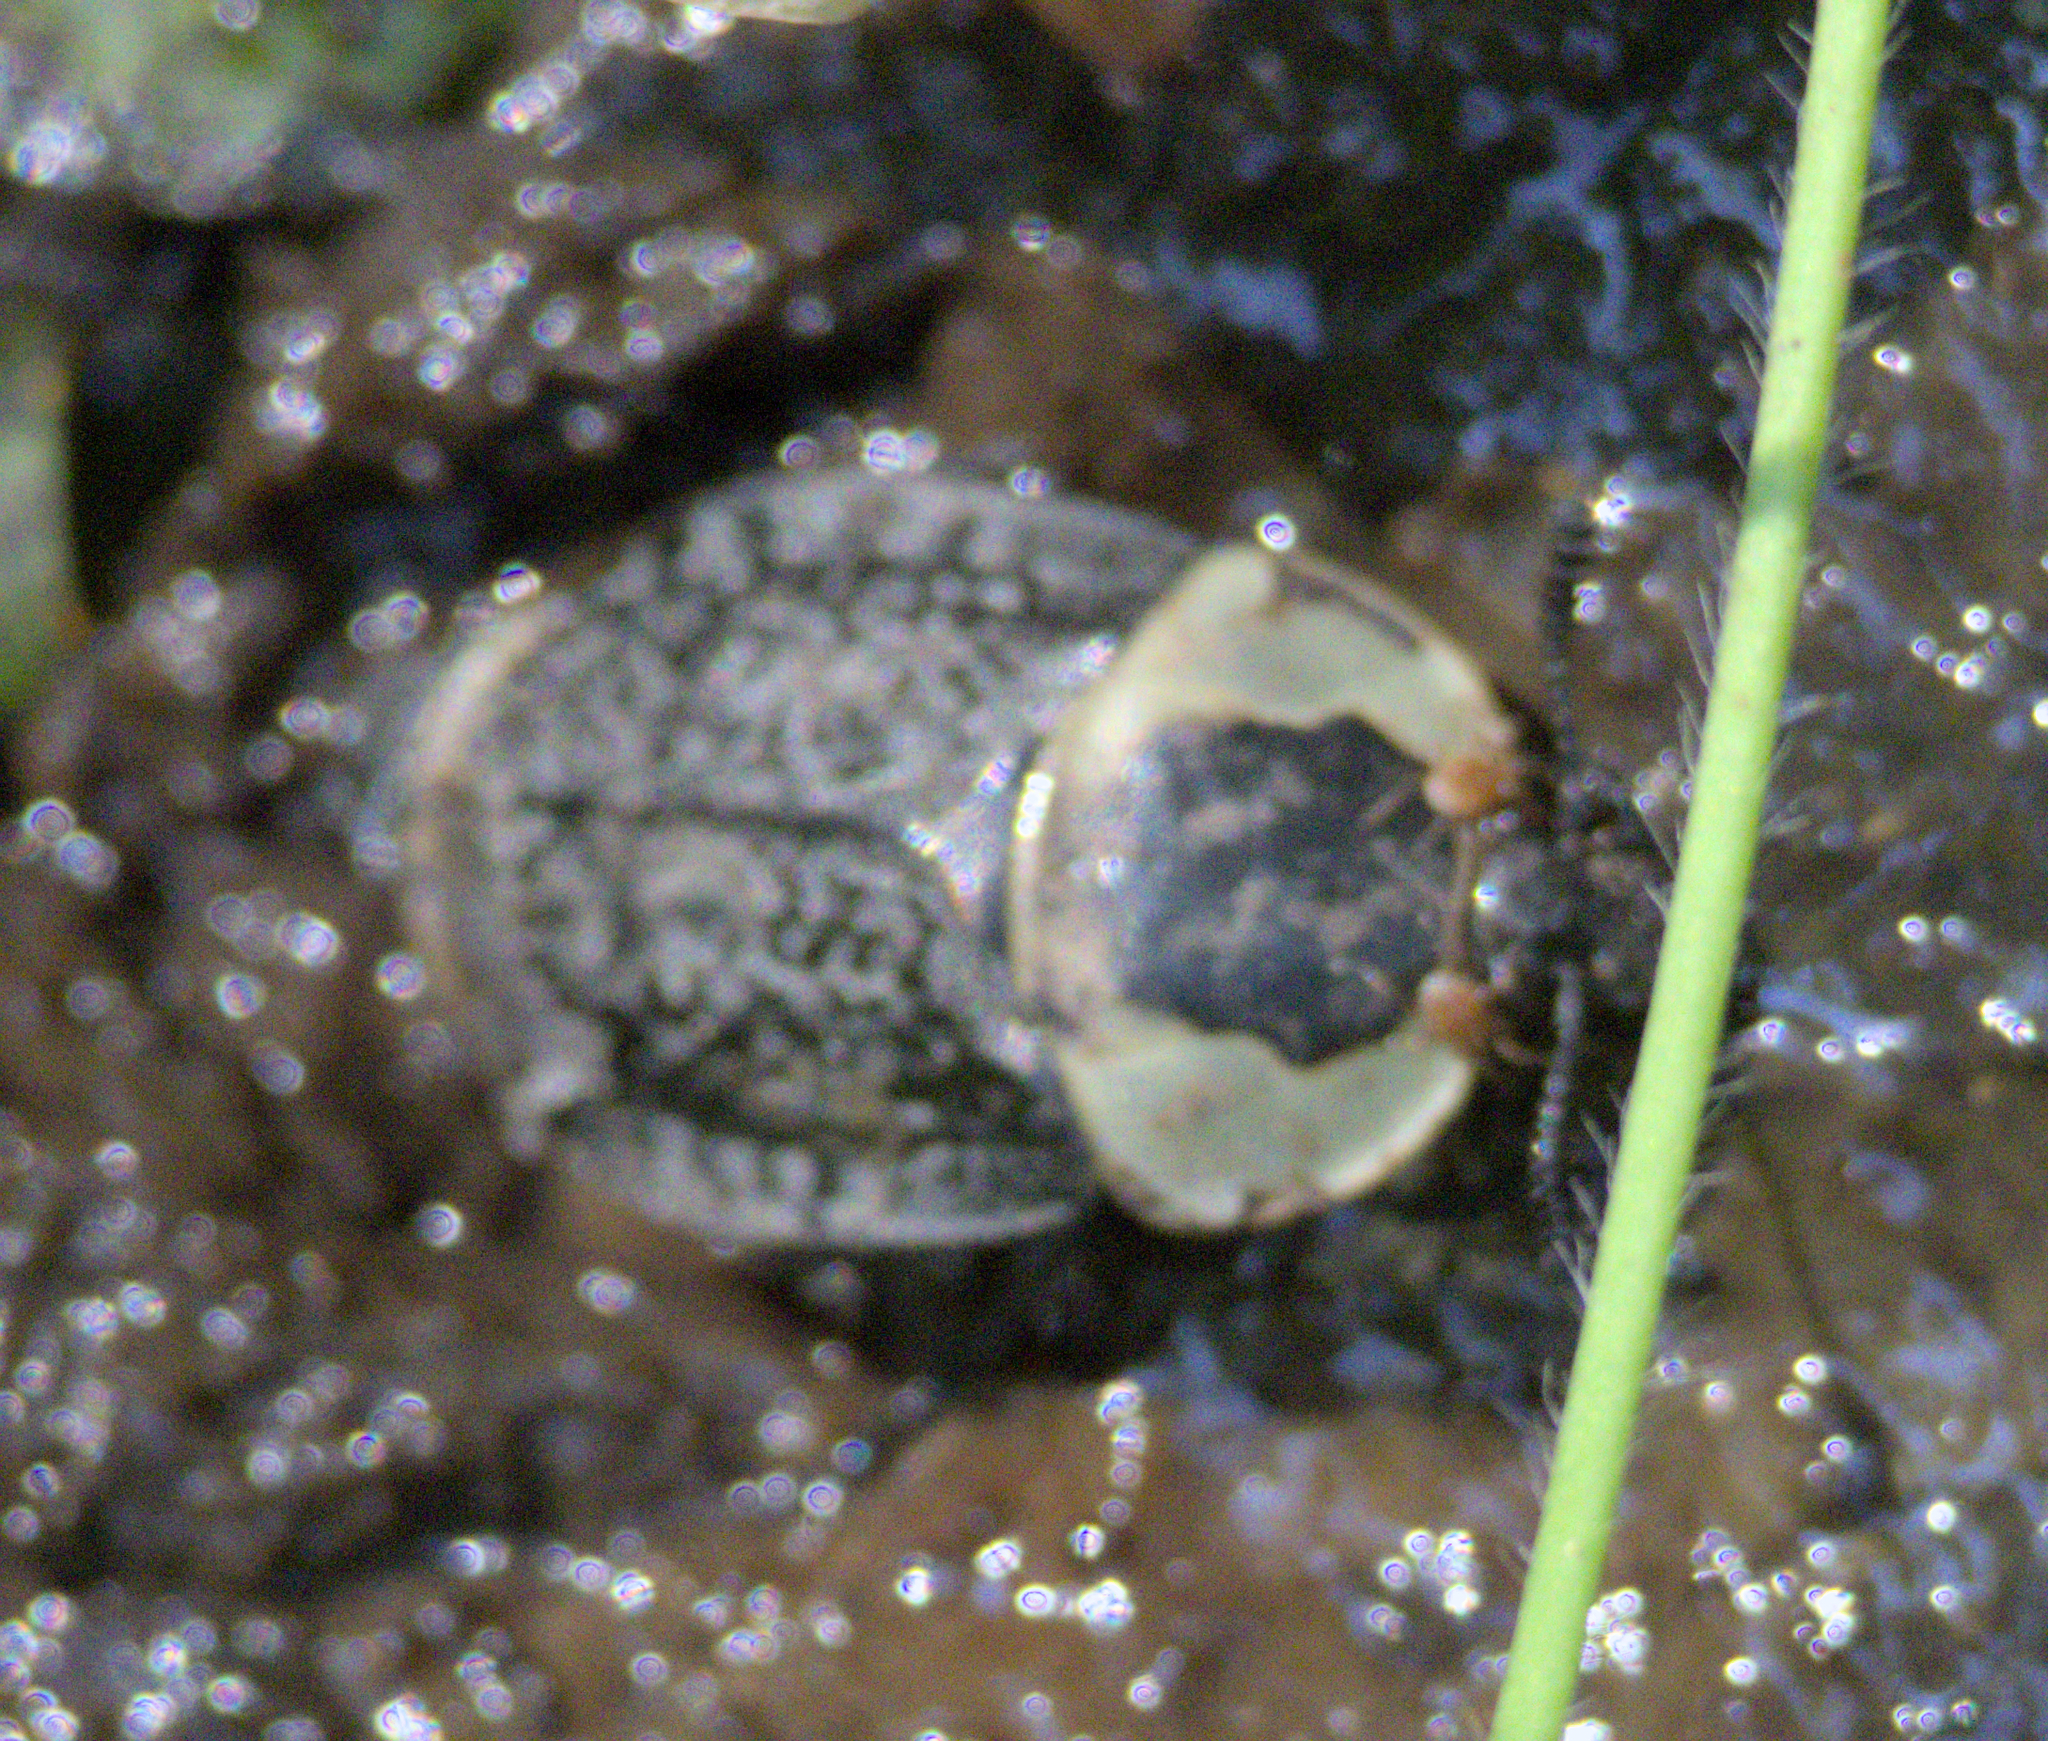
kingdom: Animalia
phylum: Arthropoda
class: Insecta
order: Coleoptera
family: Staphylinidae
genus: Necrophila
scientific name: Necrophila americana
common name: American carrion beetle
